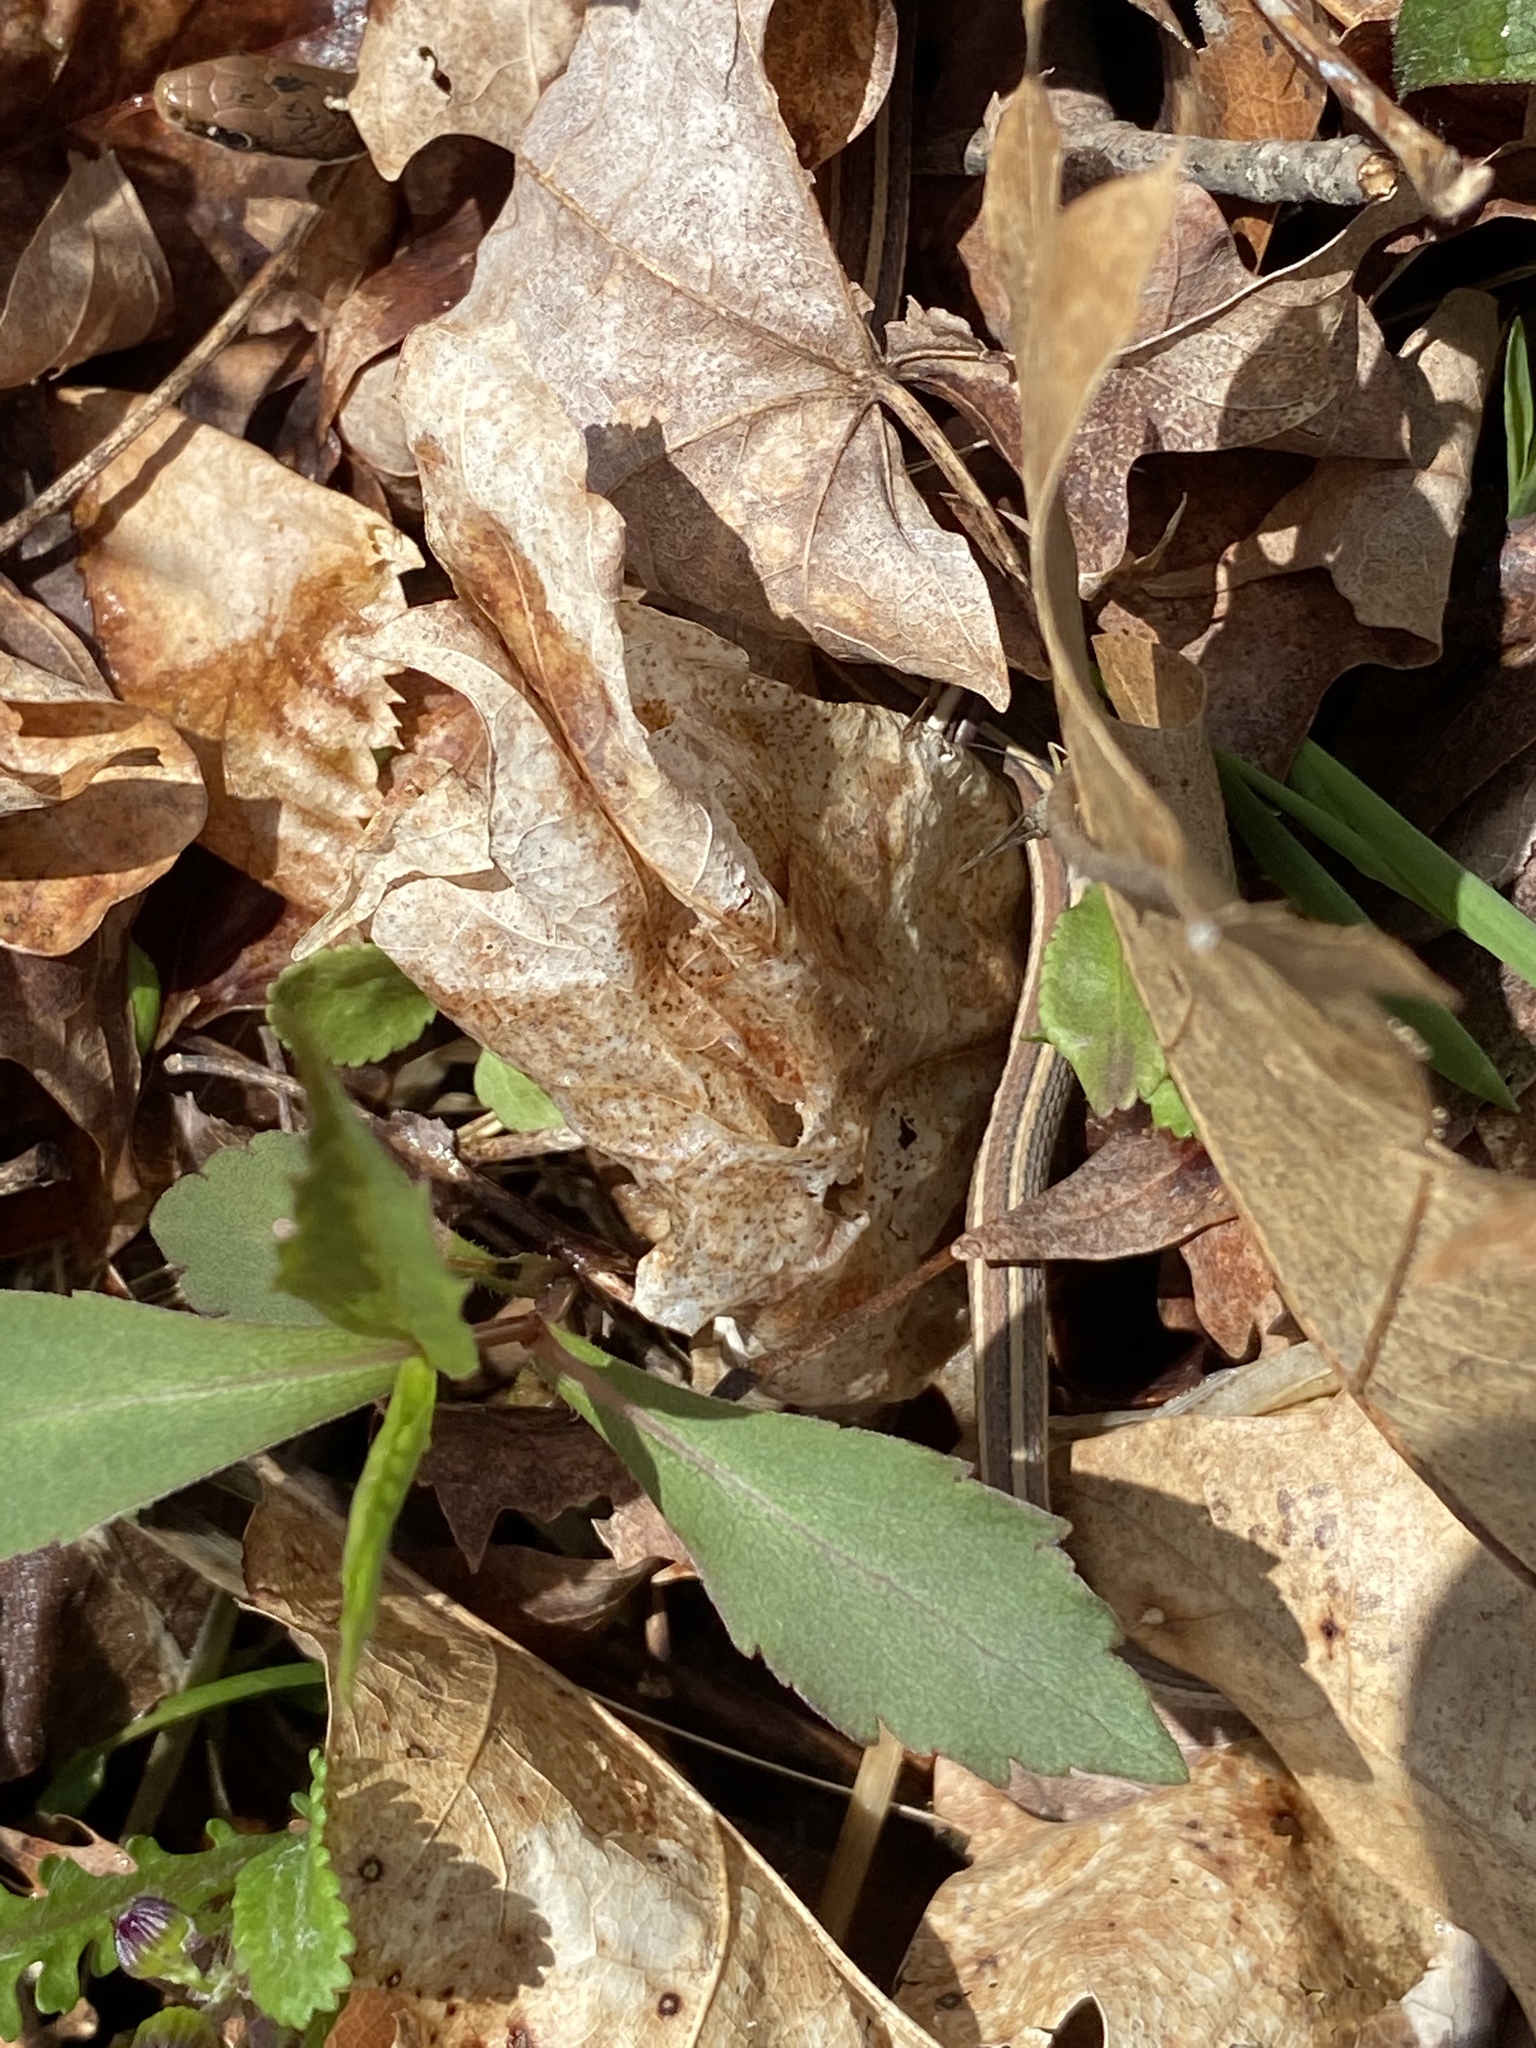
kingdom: Animalia
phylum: Chordata
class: Squamata
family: Colubridae
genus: Thamnophis
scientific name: Thamnophis sirtalis
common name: Common garter snake
